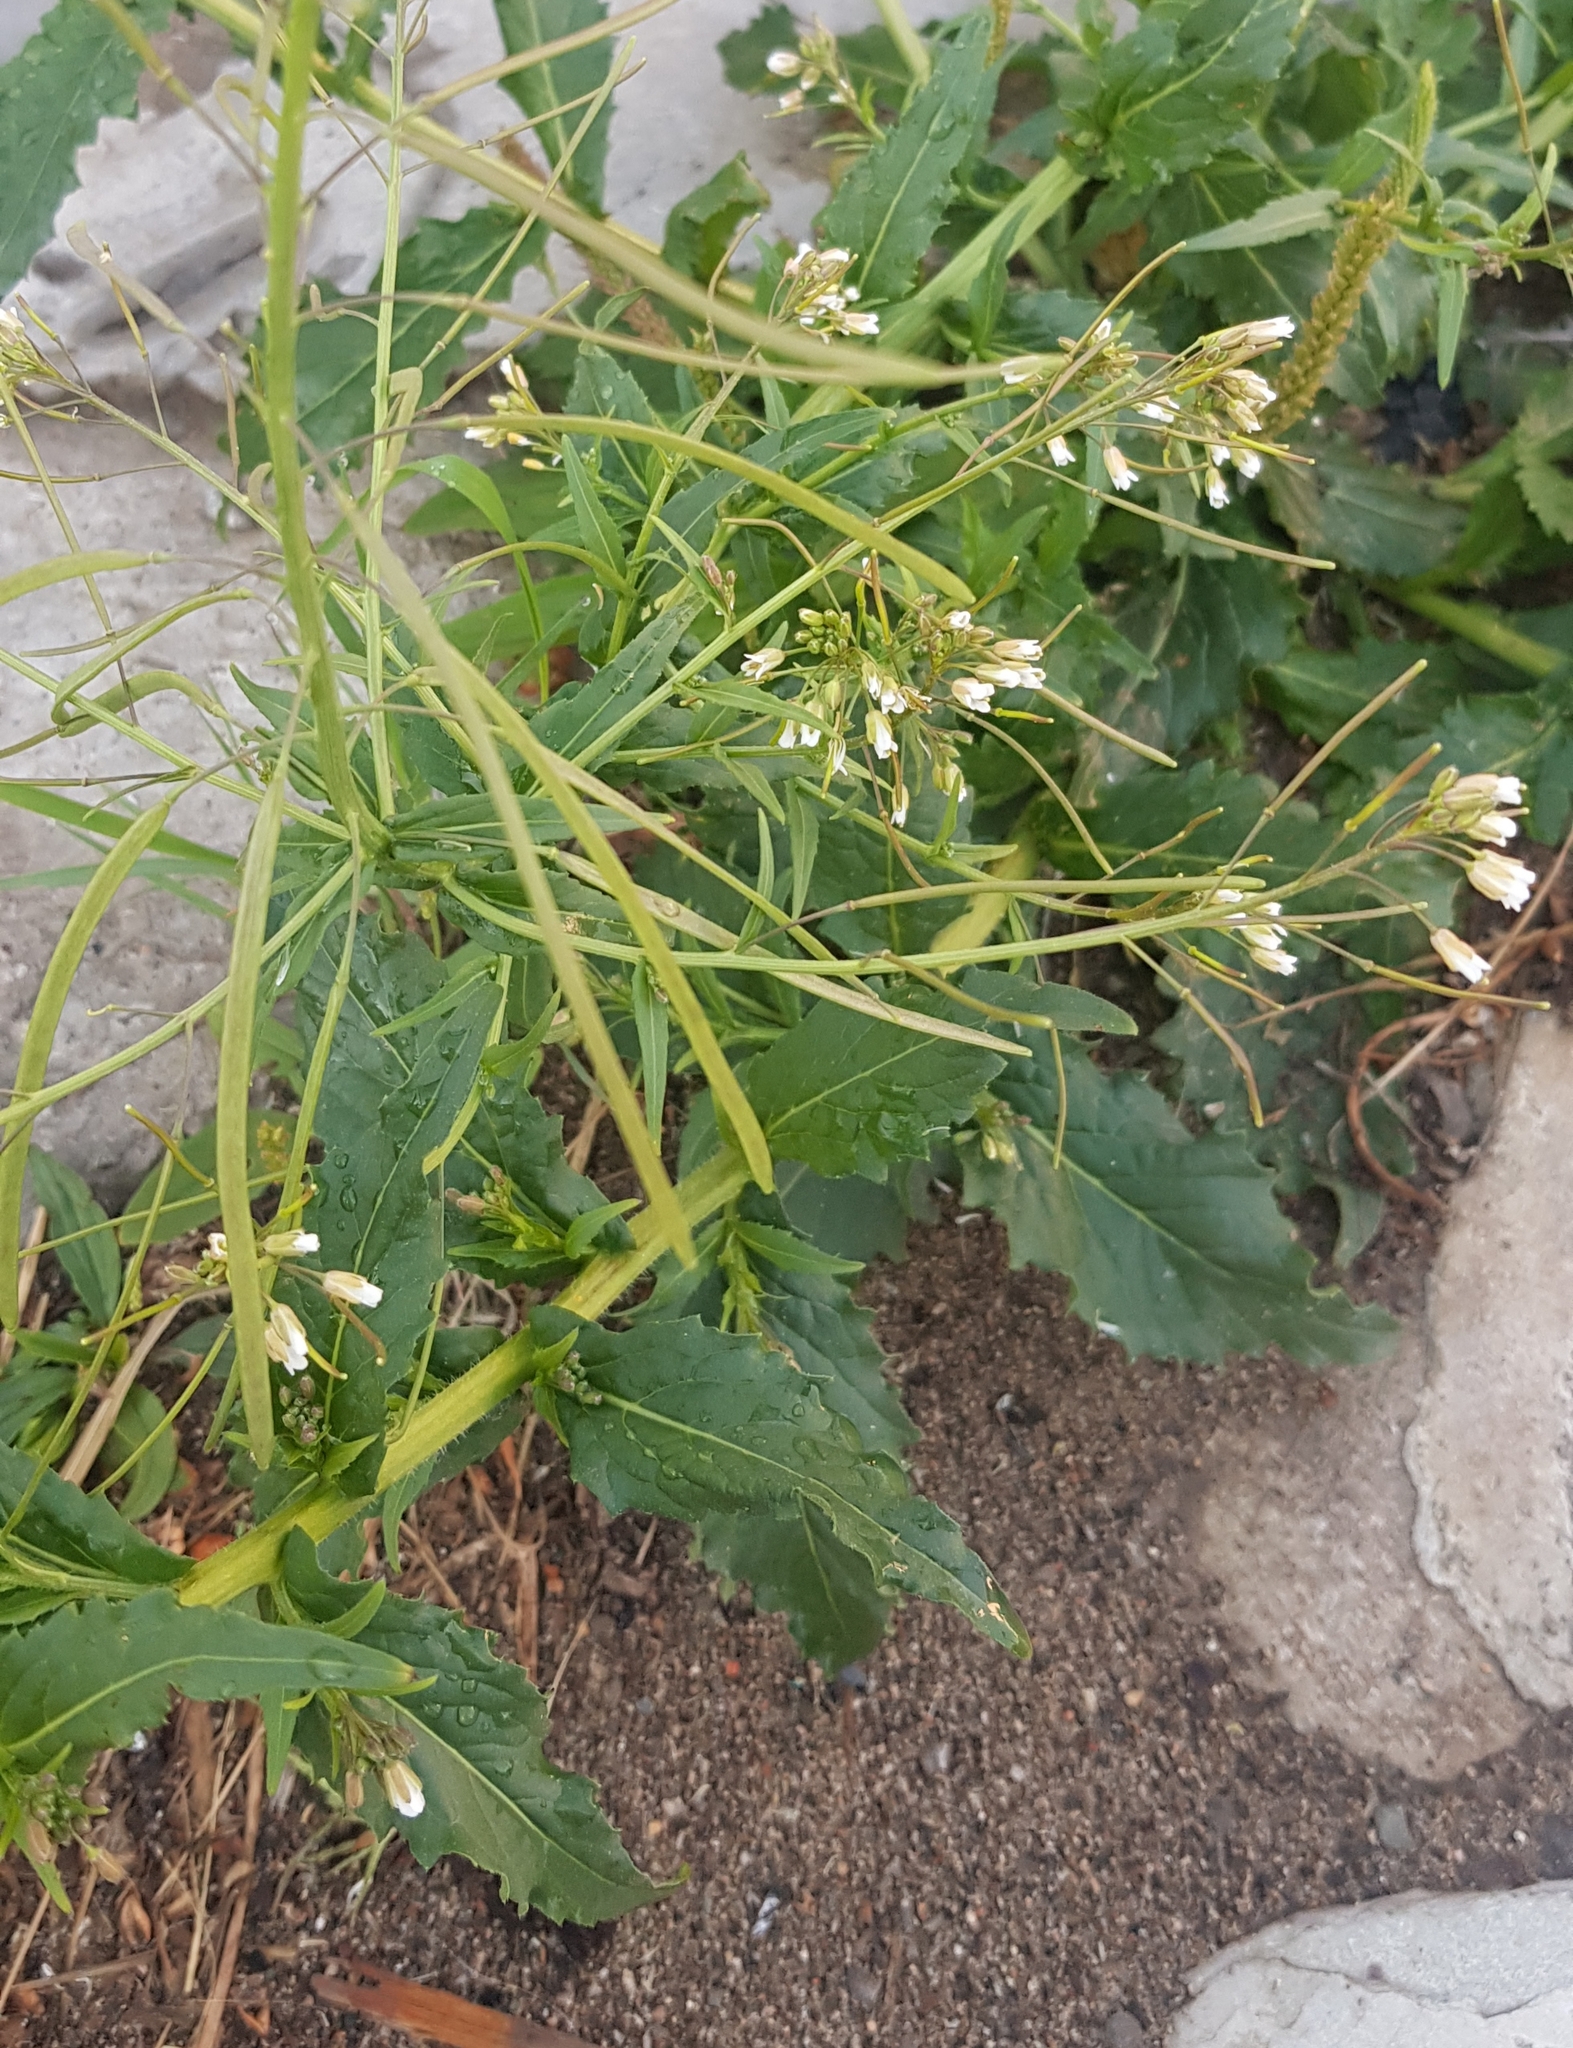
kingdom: Plantae
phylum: Tracheophyta
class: Magnoliopsida
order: Brassicales
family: Brassicaceae
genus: Catolobus
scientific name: Catolobus pendulus
